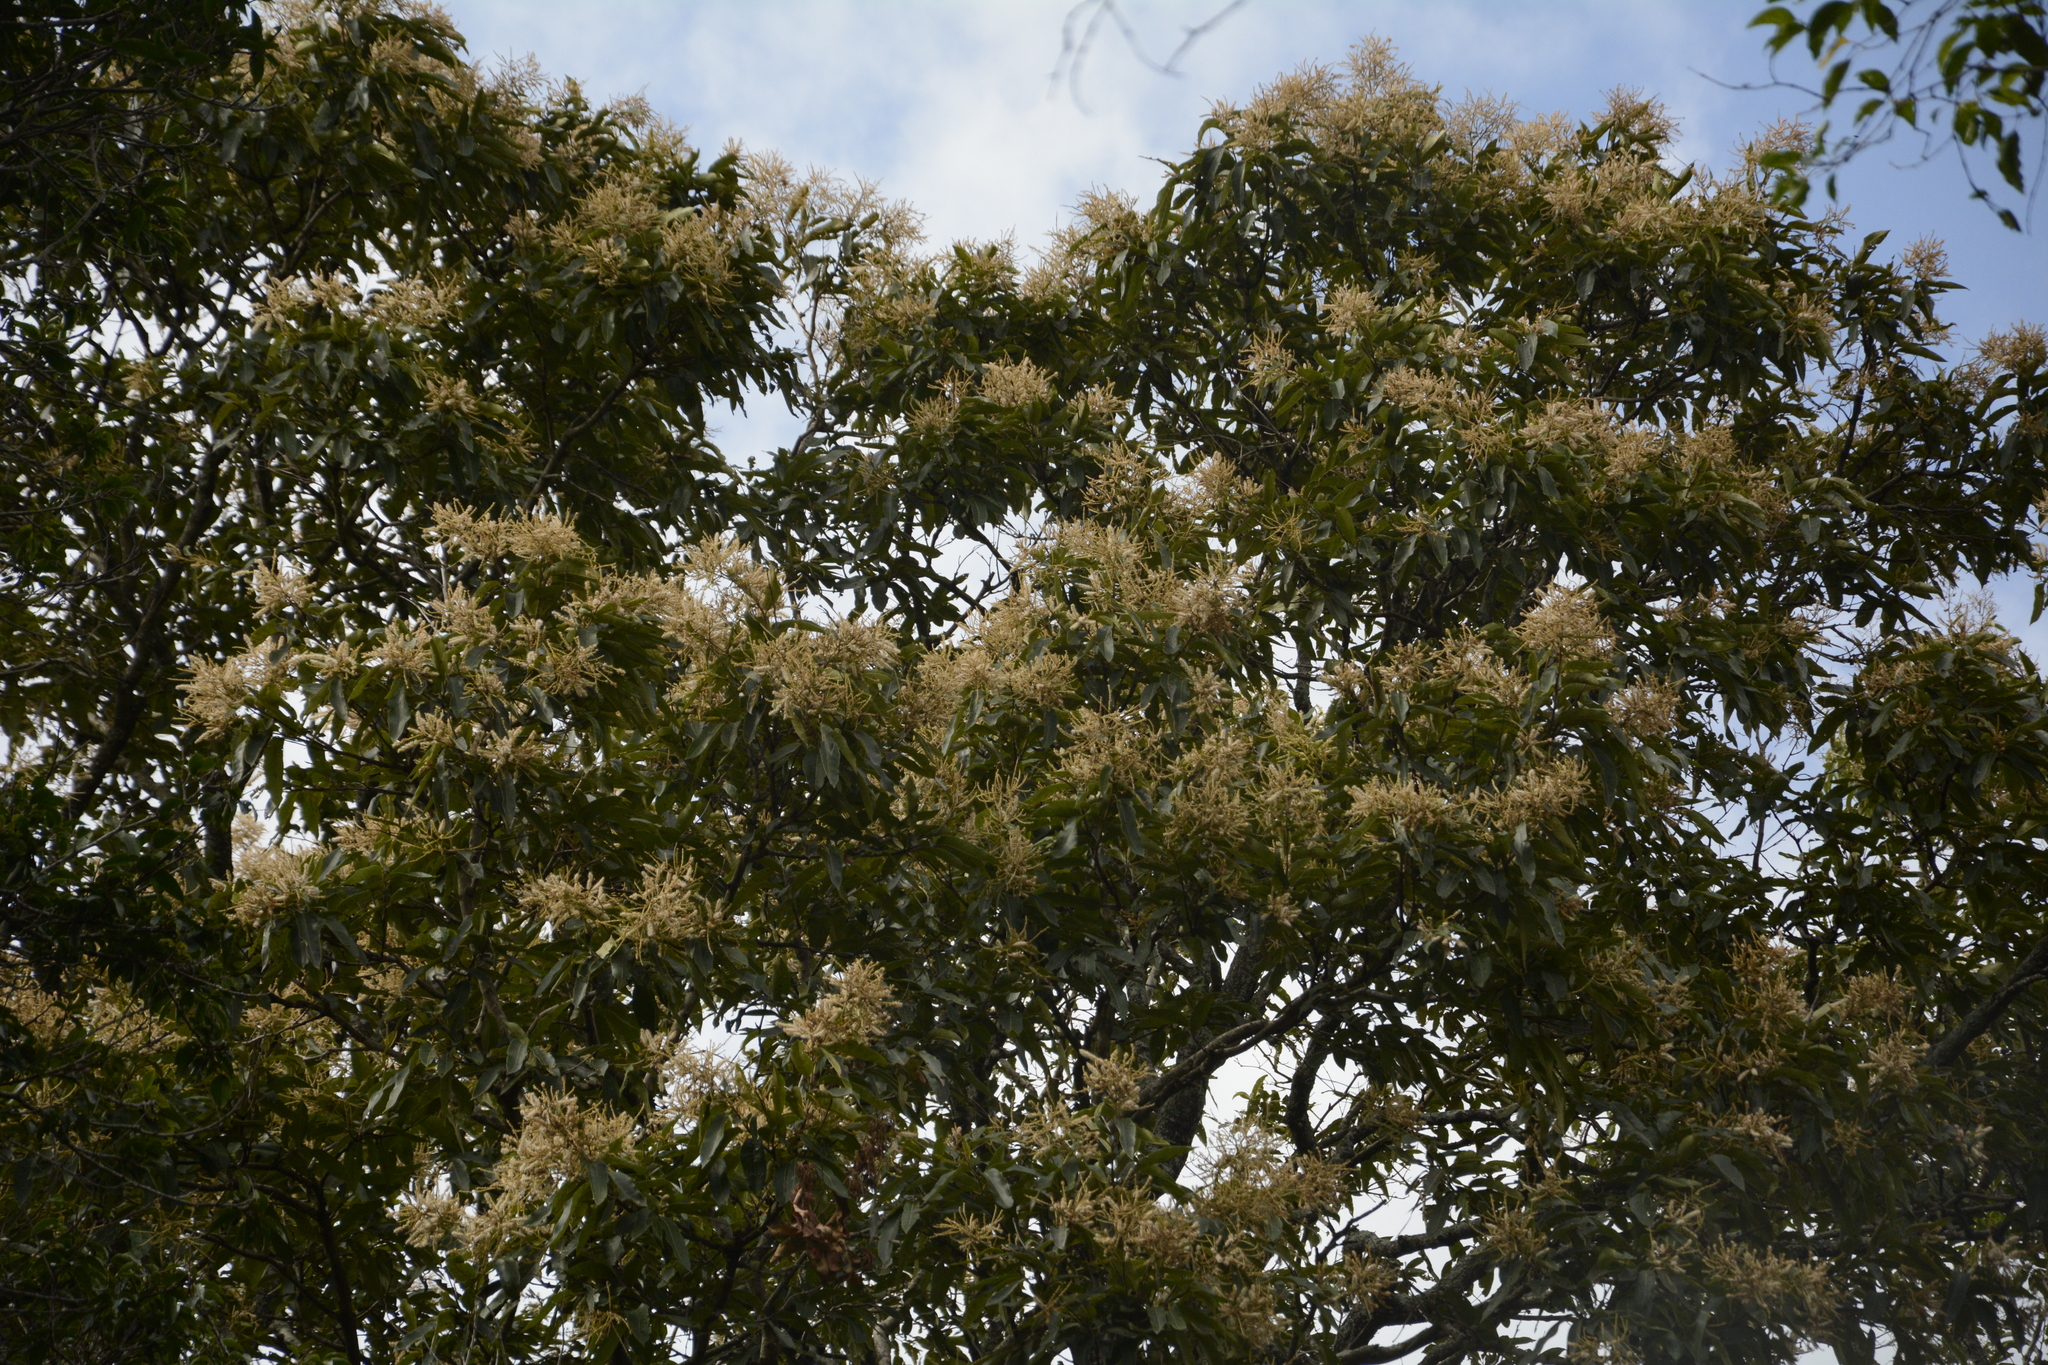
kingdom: Plantae
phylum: Tracheophyta
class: Magnoliopsida
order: Myrtales
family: Combretaceae
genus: Terminalia
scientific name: Terminalia elliptica
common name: Indian-laurel
